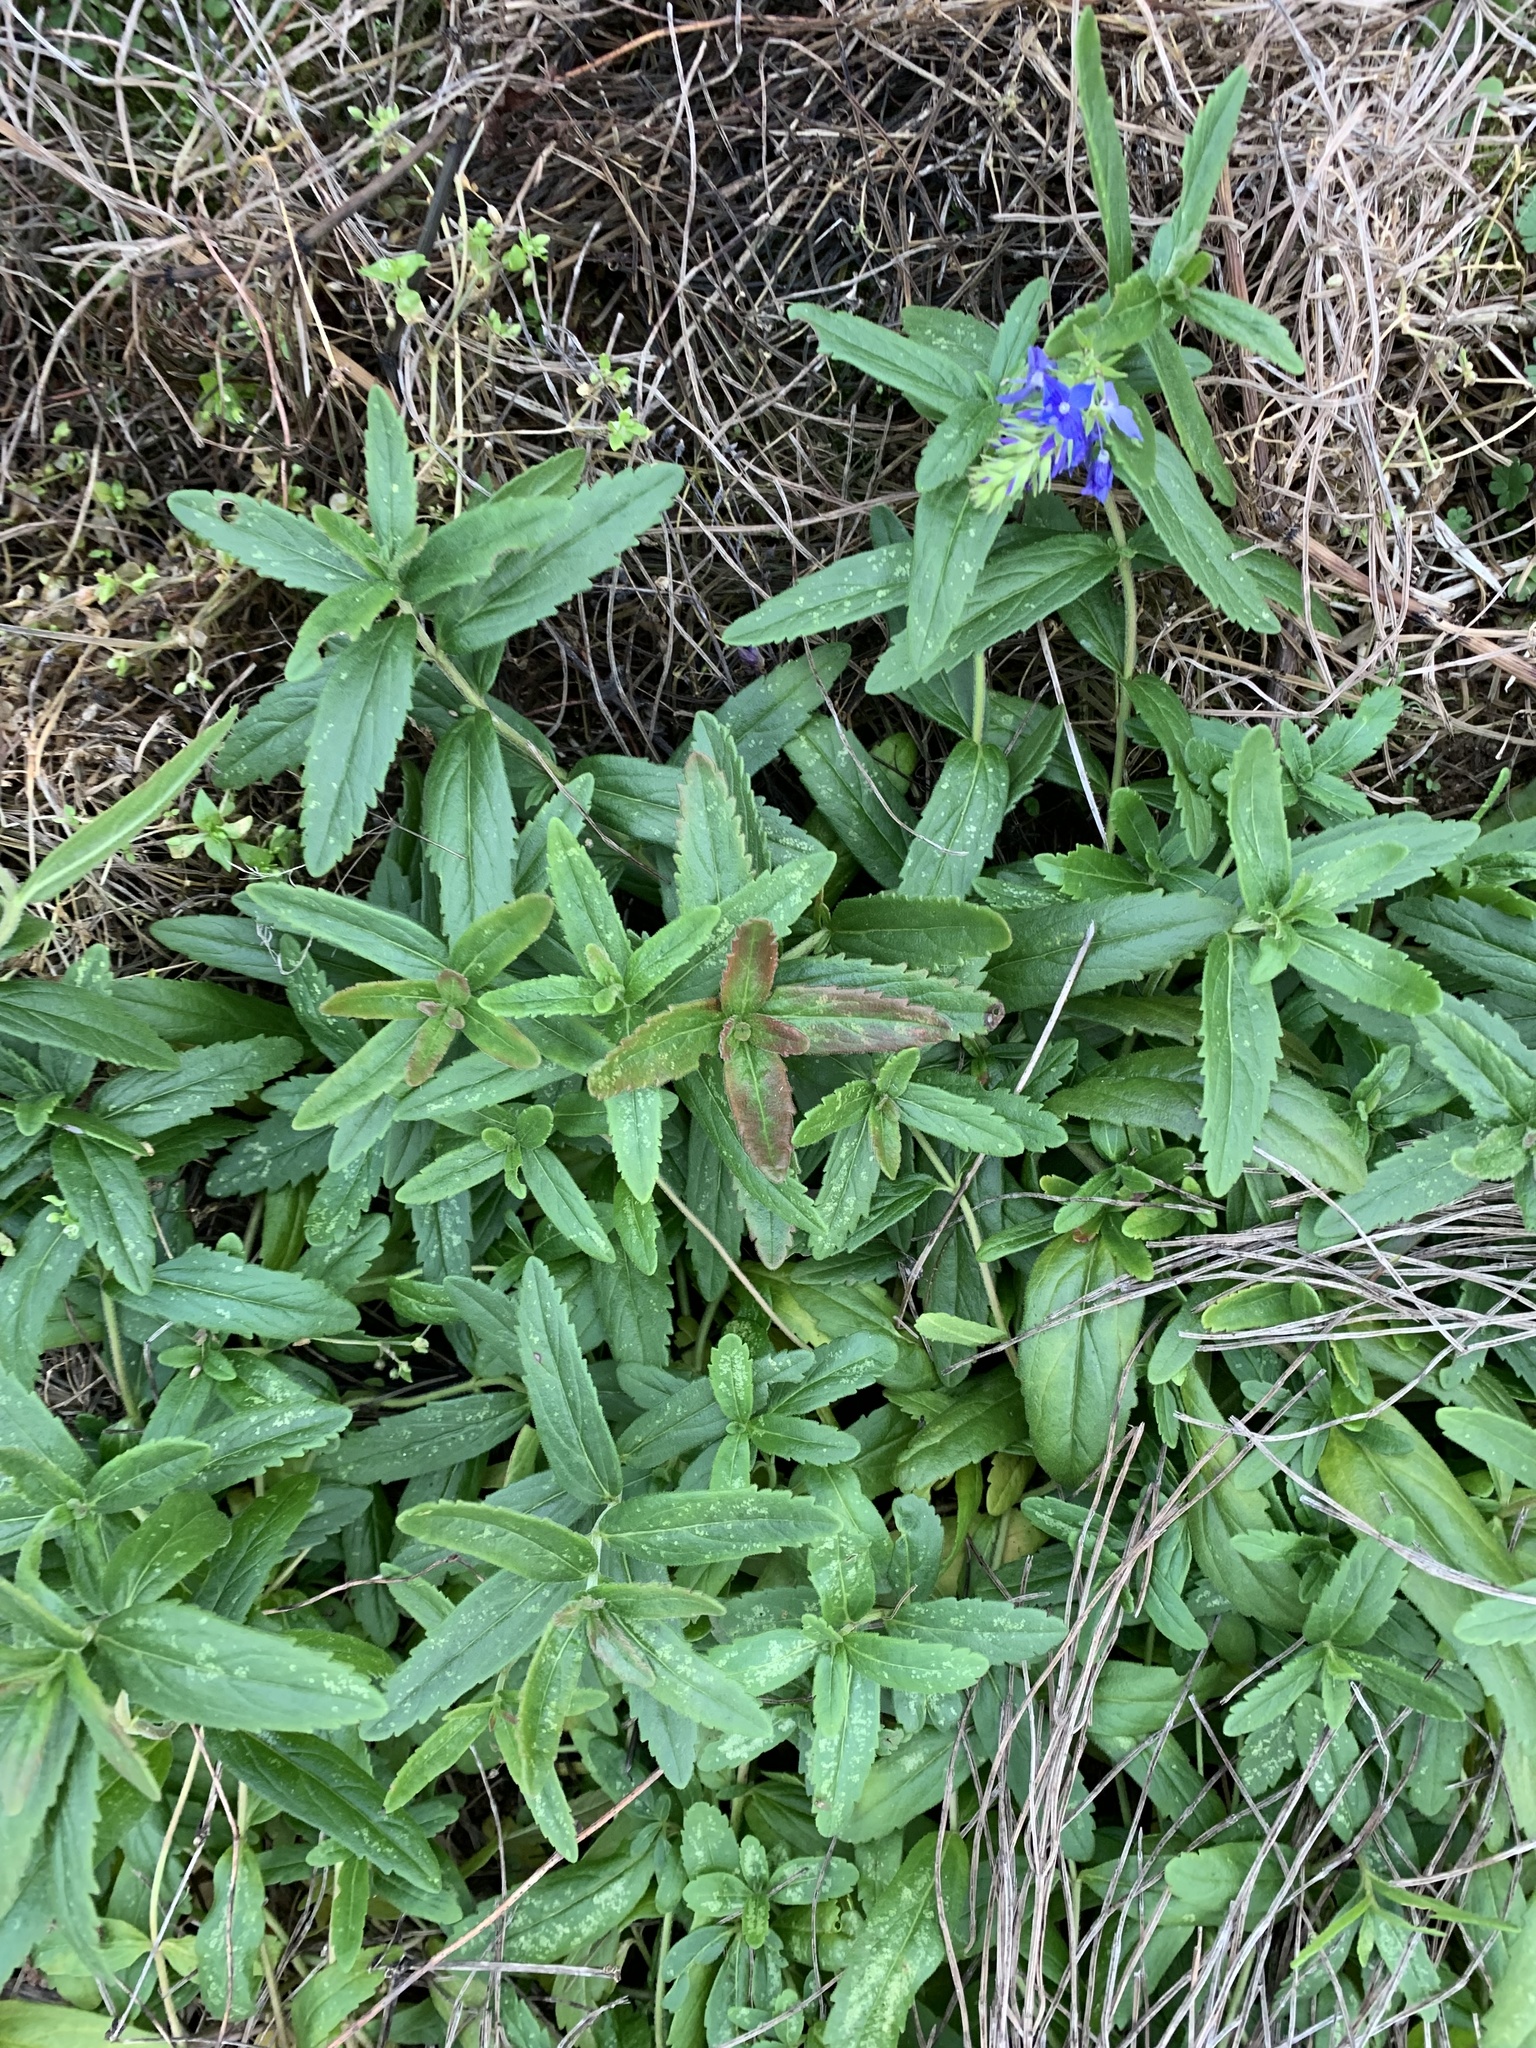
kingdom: Plantae
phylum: Tracheophyta
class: Magnoliopsida
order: Lamiales
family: Plantaginaceae
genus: Veronica
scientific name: Veronica teucrium
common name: Large speedwell
